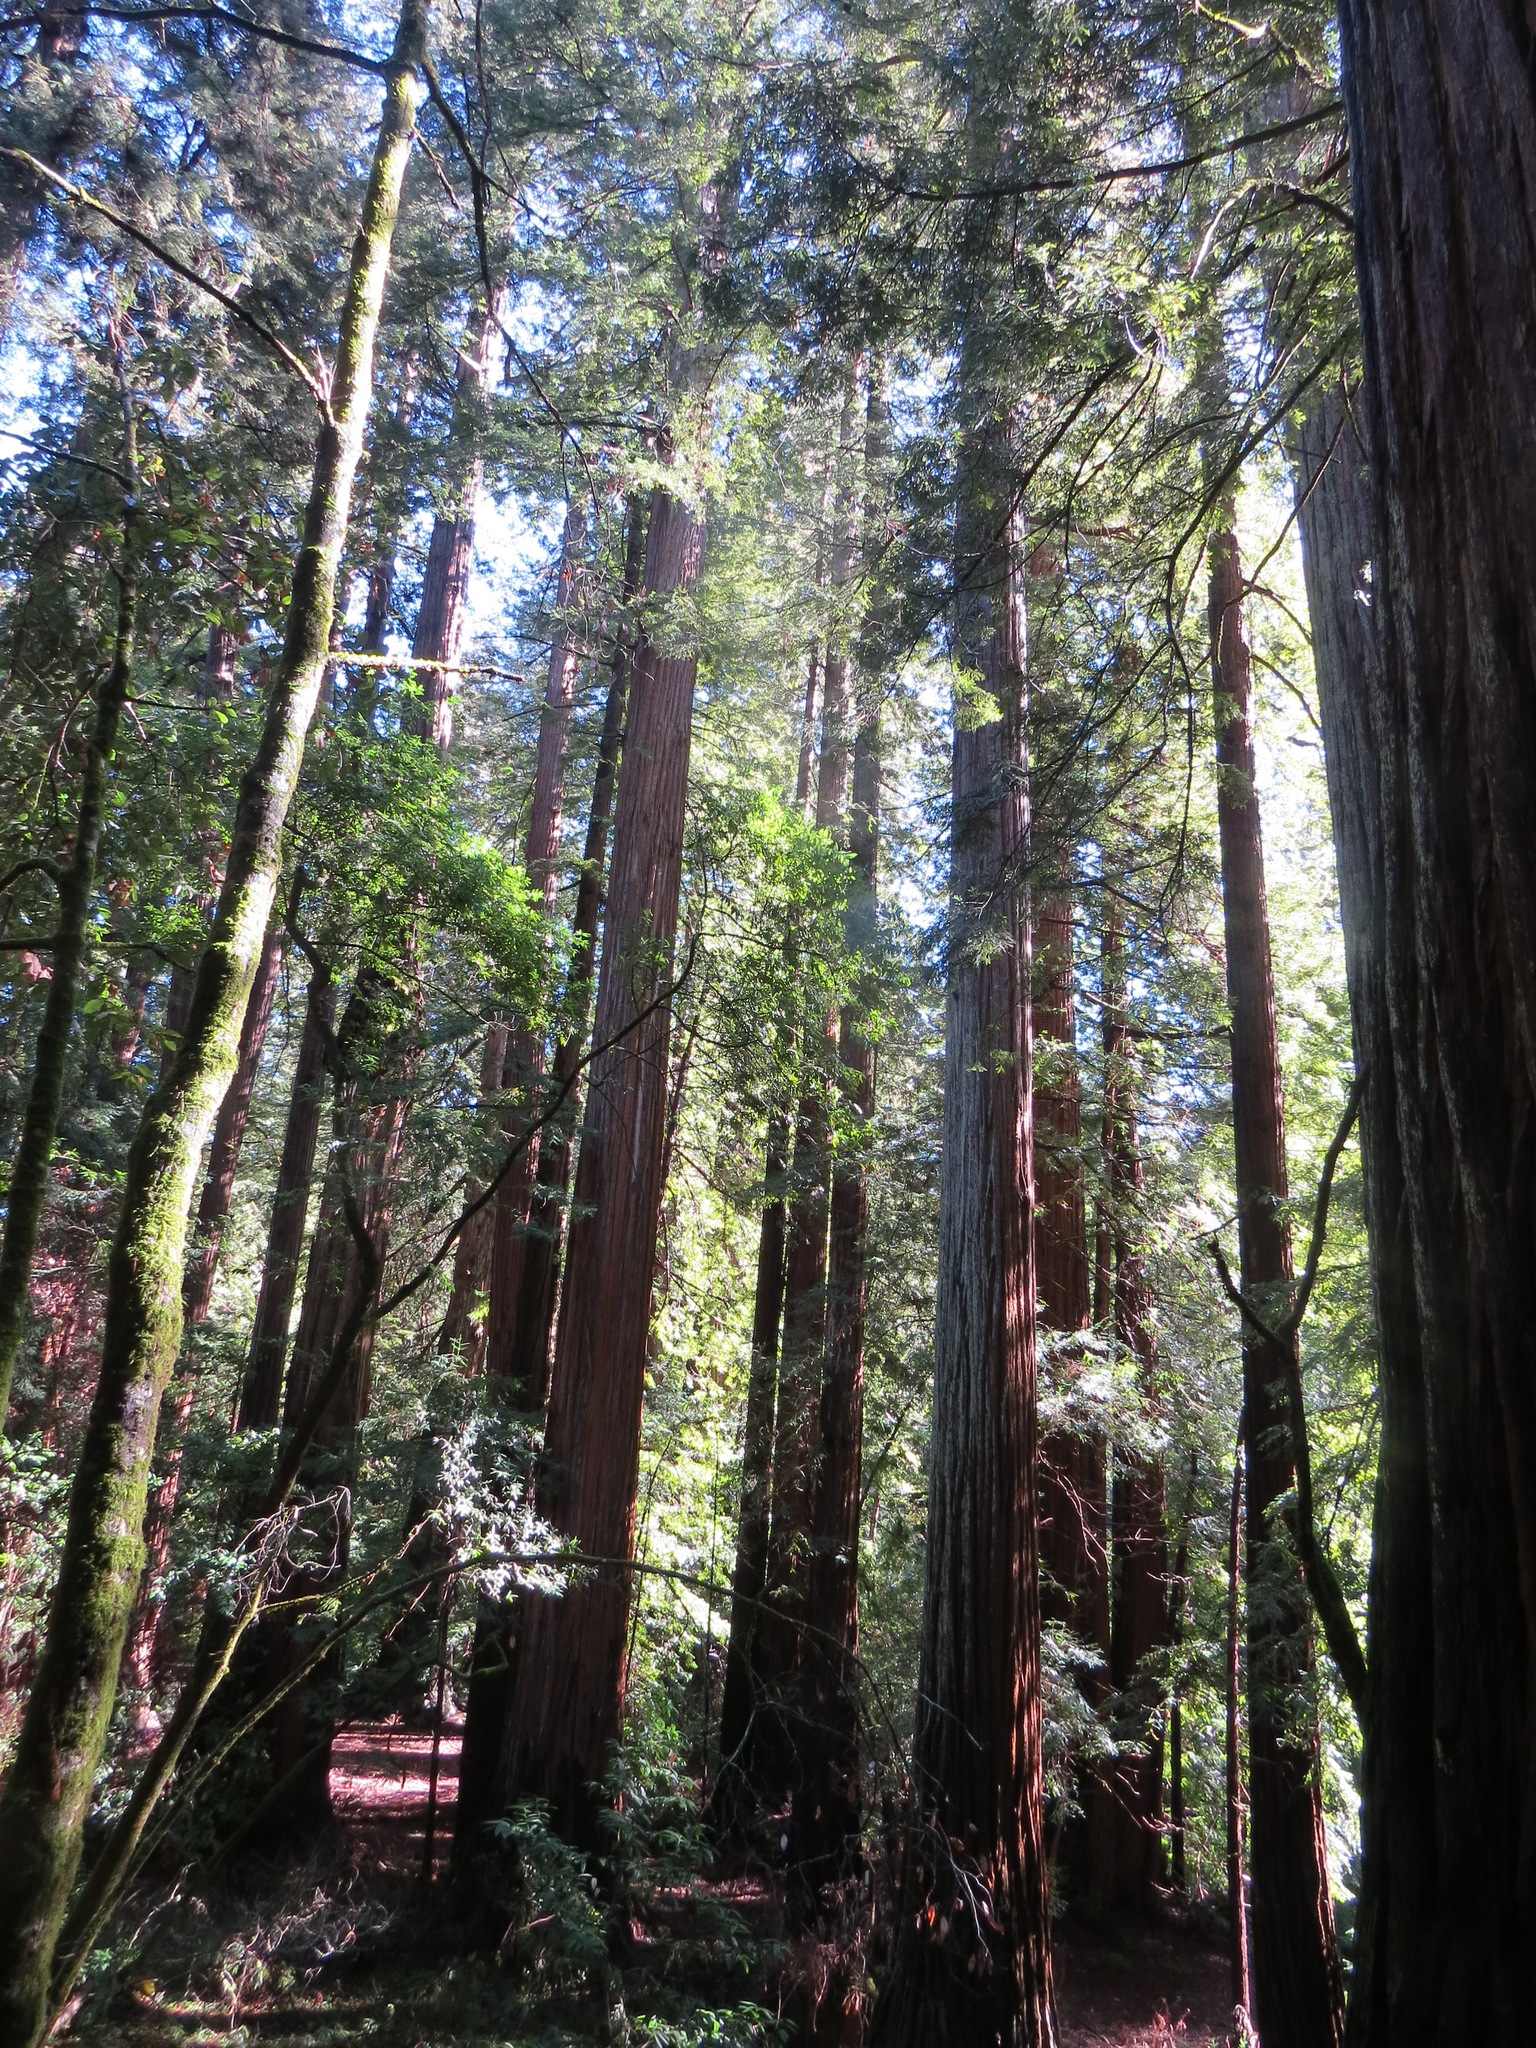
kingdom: Plantae
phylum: Tracheophyta
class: Pinopsida
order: Pinales
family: Cupressaceae
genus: Sequoia
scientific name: Sequoia sempervirens
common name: Coast redwood
